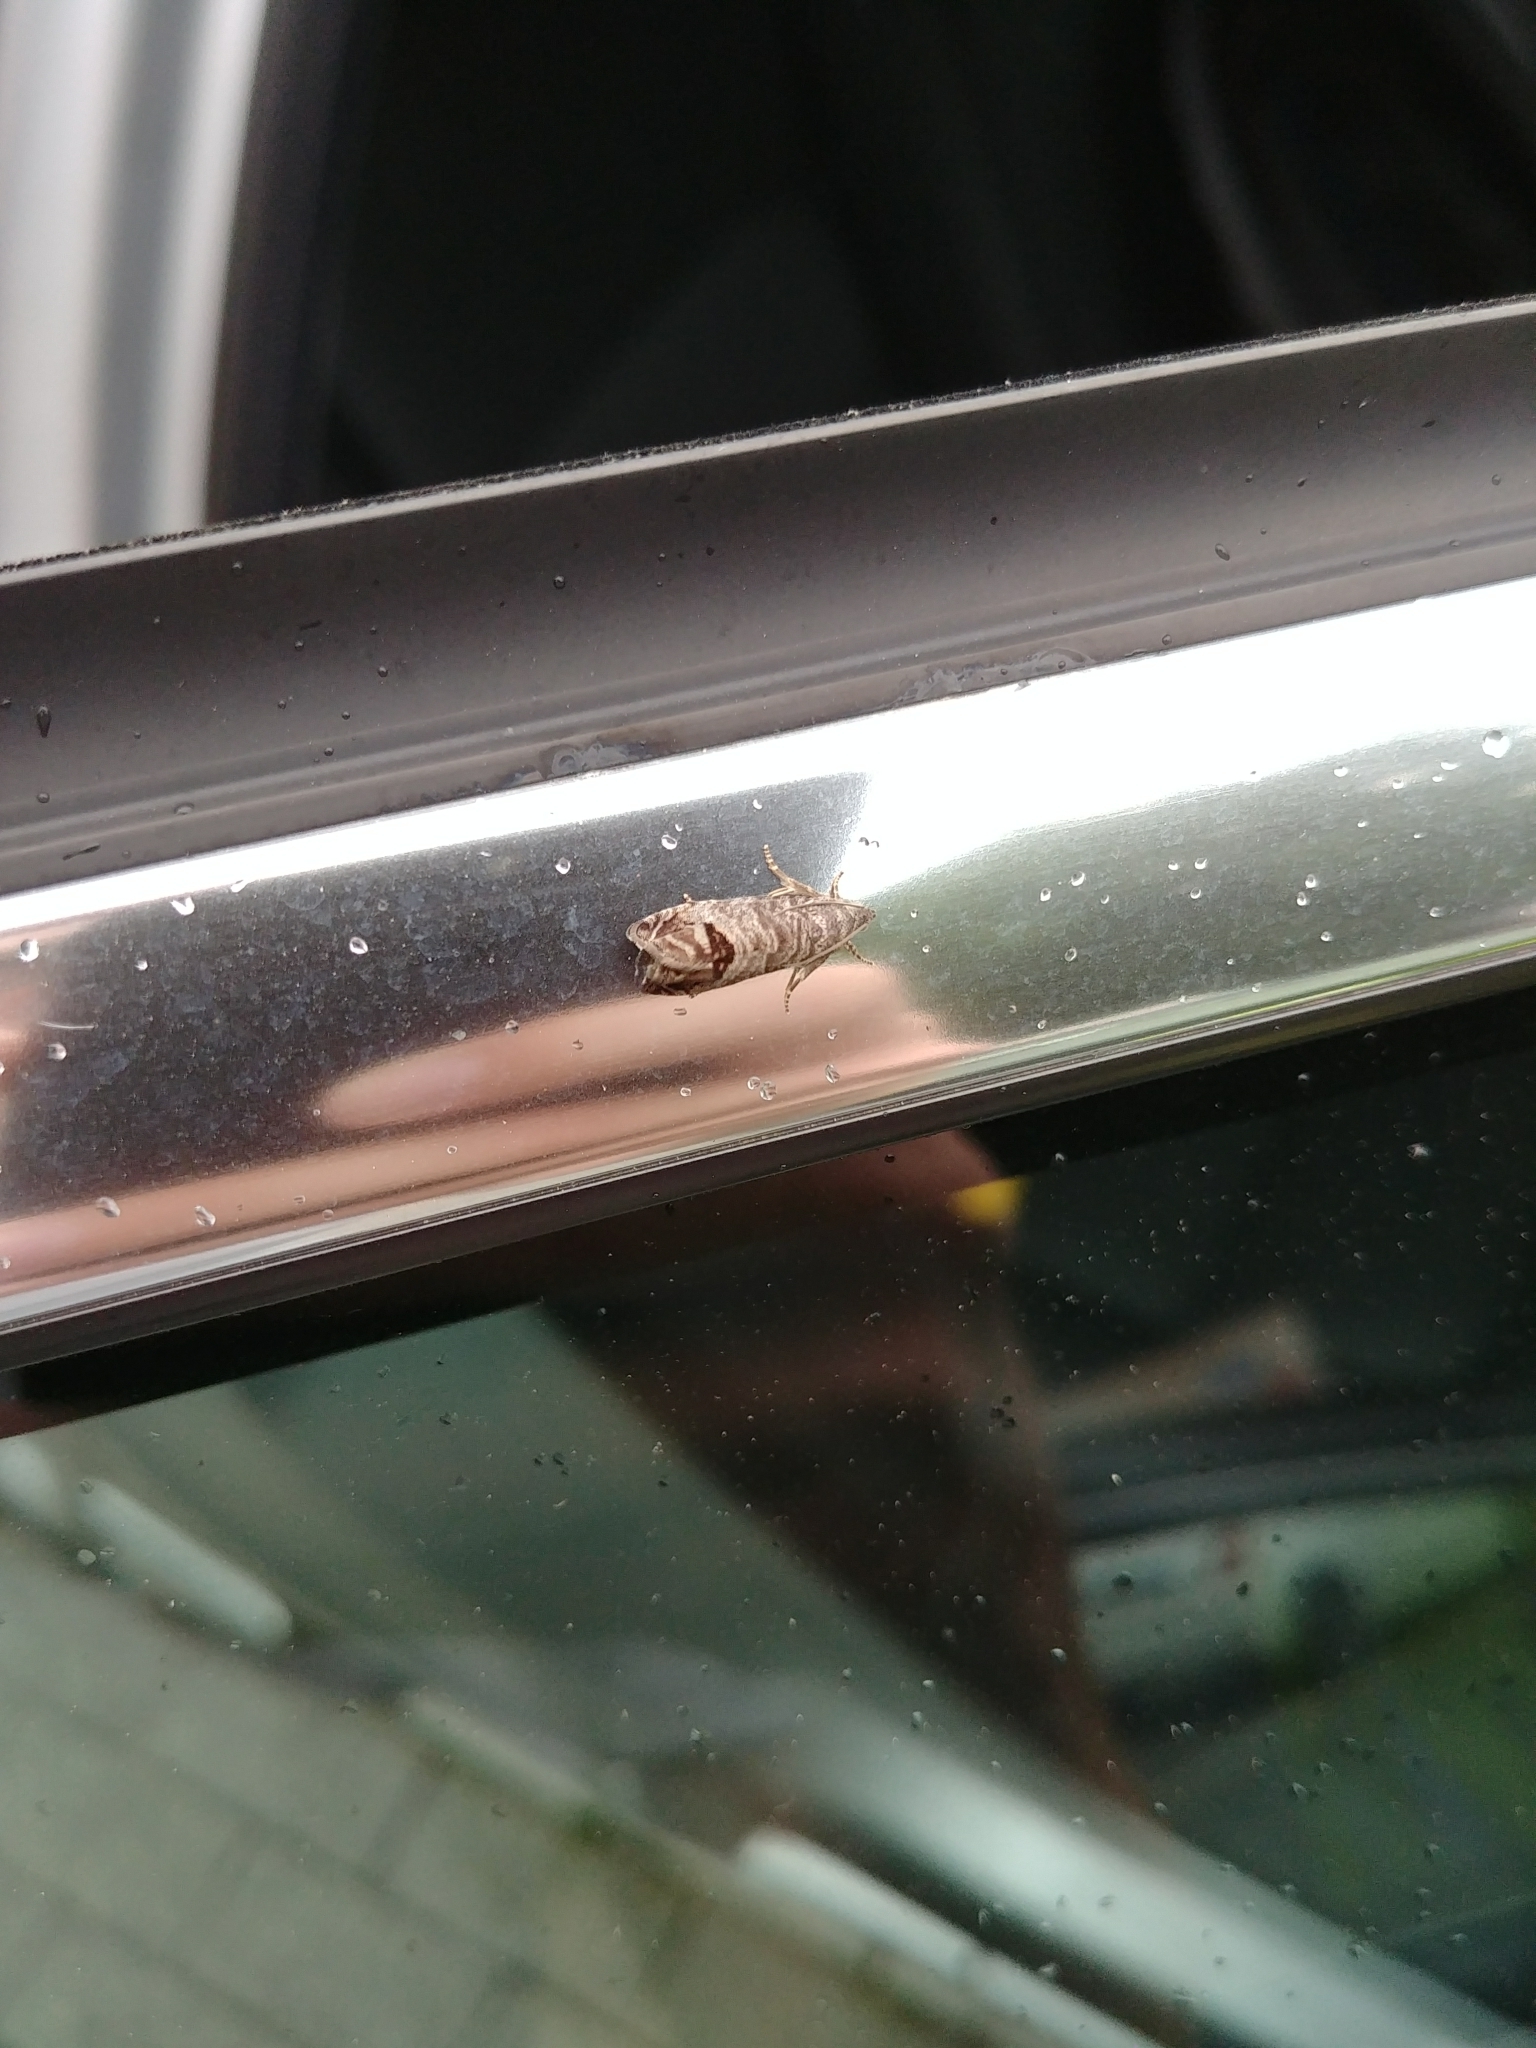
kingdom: Animalia
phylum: Arthropoda
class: Insecta
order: Lepidoptera
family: Tortricidae
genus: Notocelia
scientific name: Notocelia uddmanniana
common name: Bramble shoot moth
